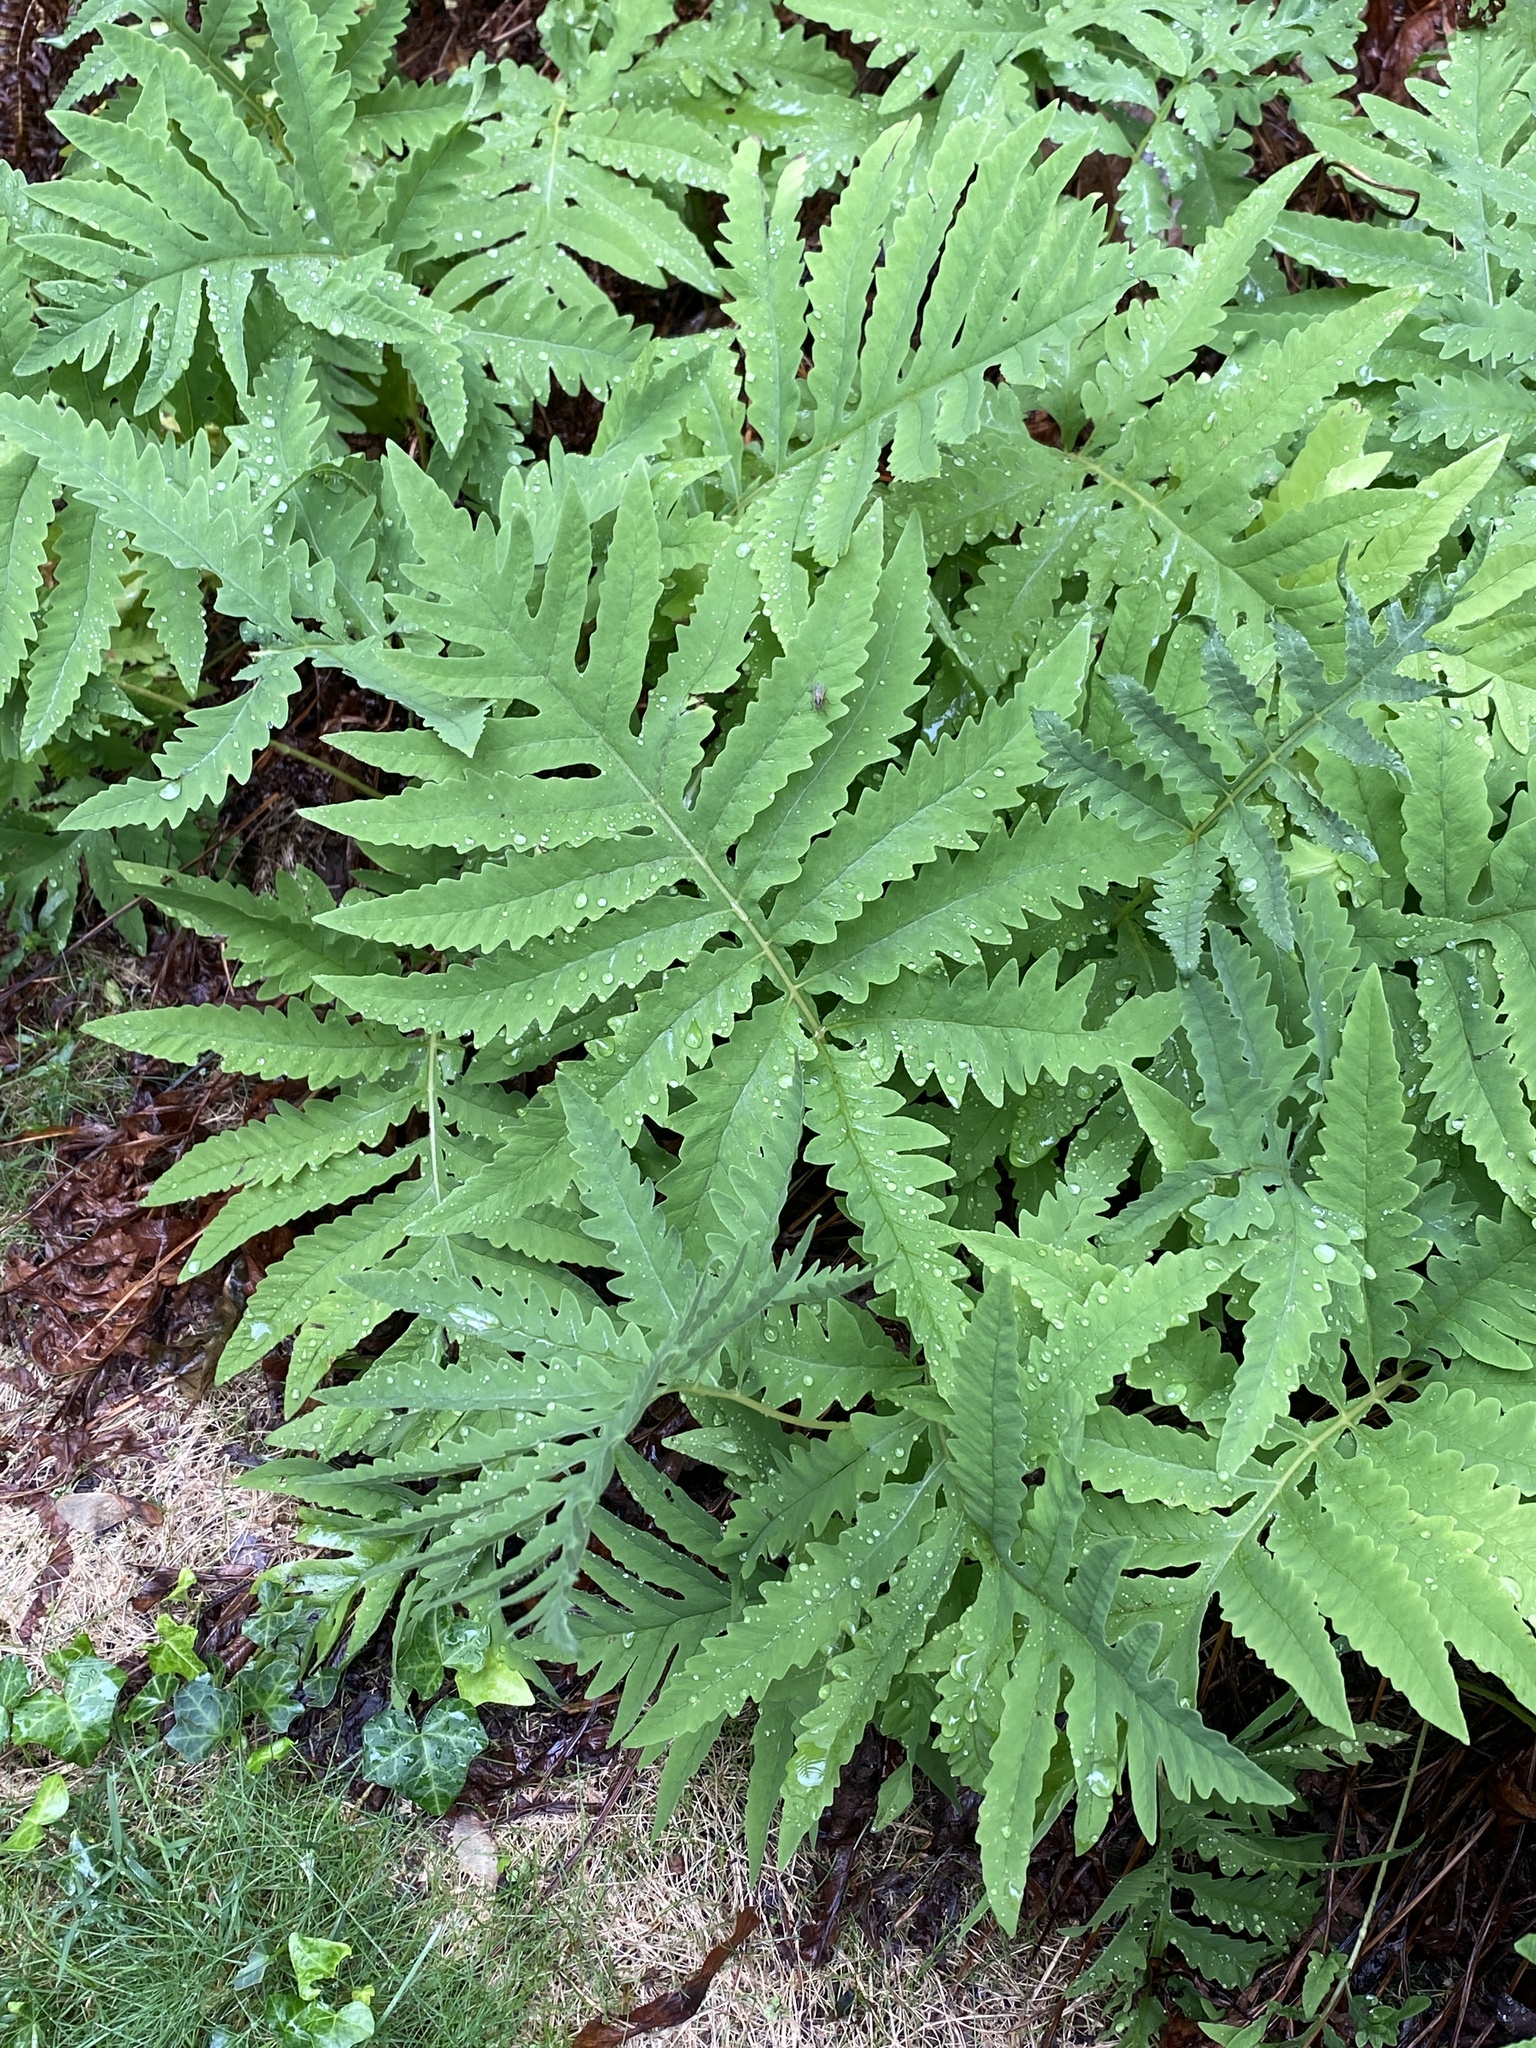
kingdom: Plantae
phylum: Tracheophyta
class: Polypodiopsida
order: Polypodiales
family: Onocleaceae
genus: Onoclea
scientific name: Onoclea sensibilis
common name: Sensitive fern
